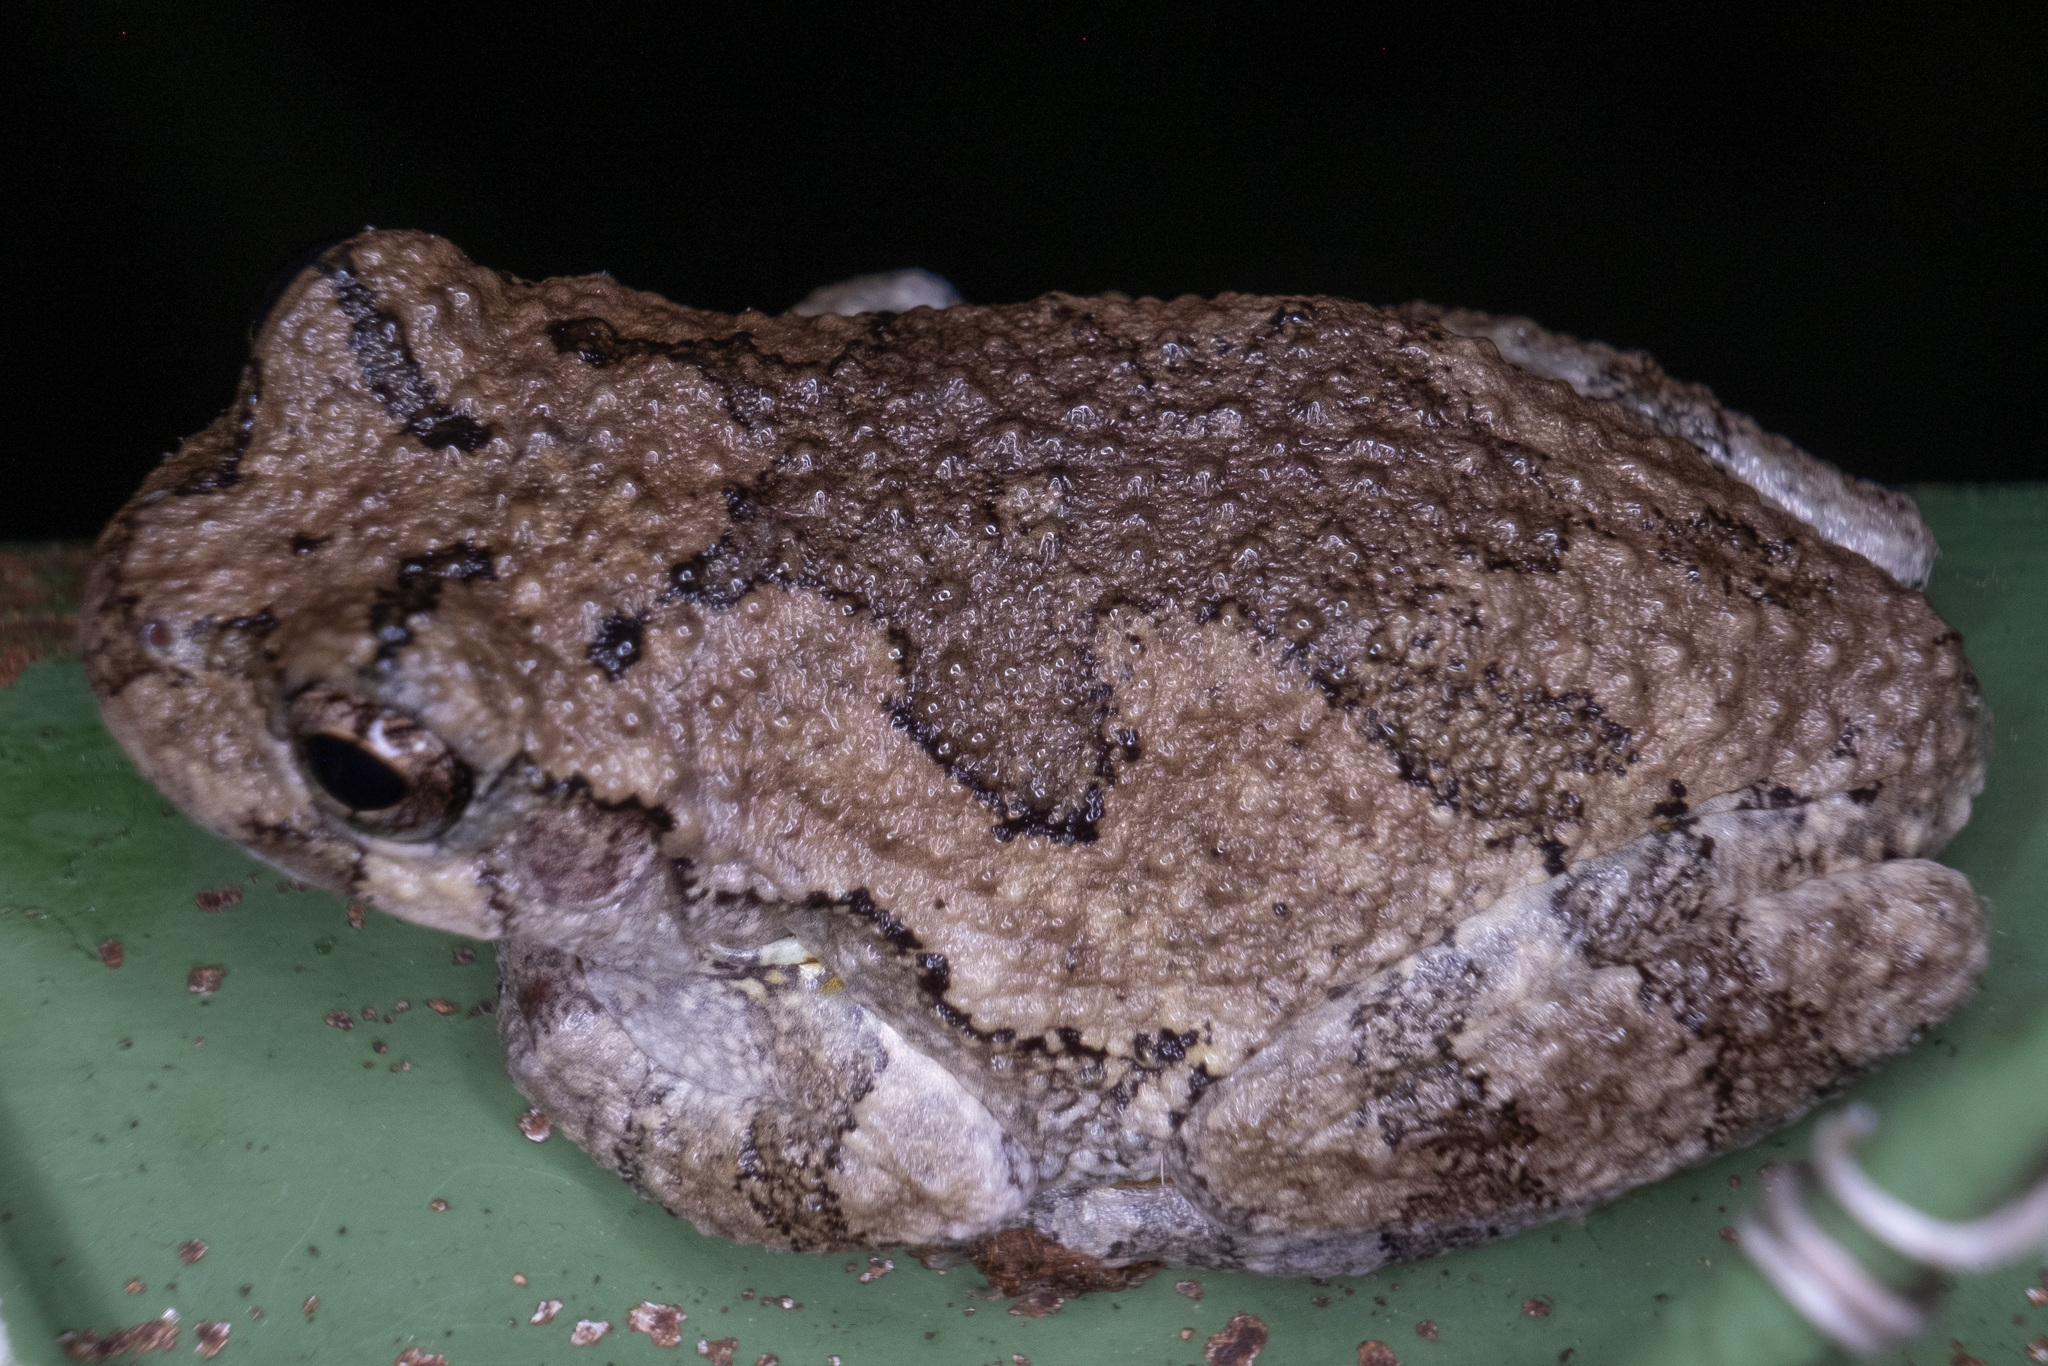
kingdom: Animalia
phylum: Chordata
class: Amphibia
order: Anura
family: Hylidae
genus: Dryophytes
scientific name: Dryophytes versicolor
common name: Gray treefrog
